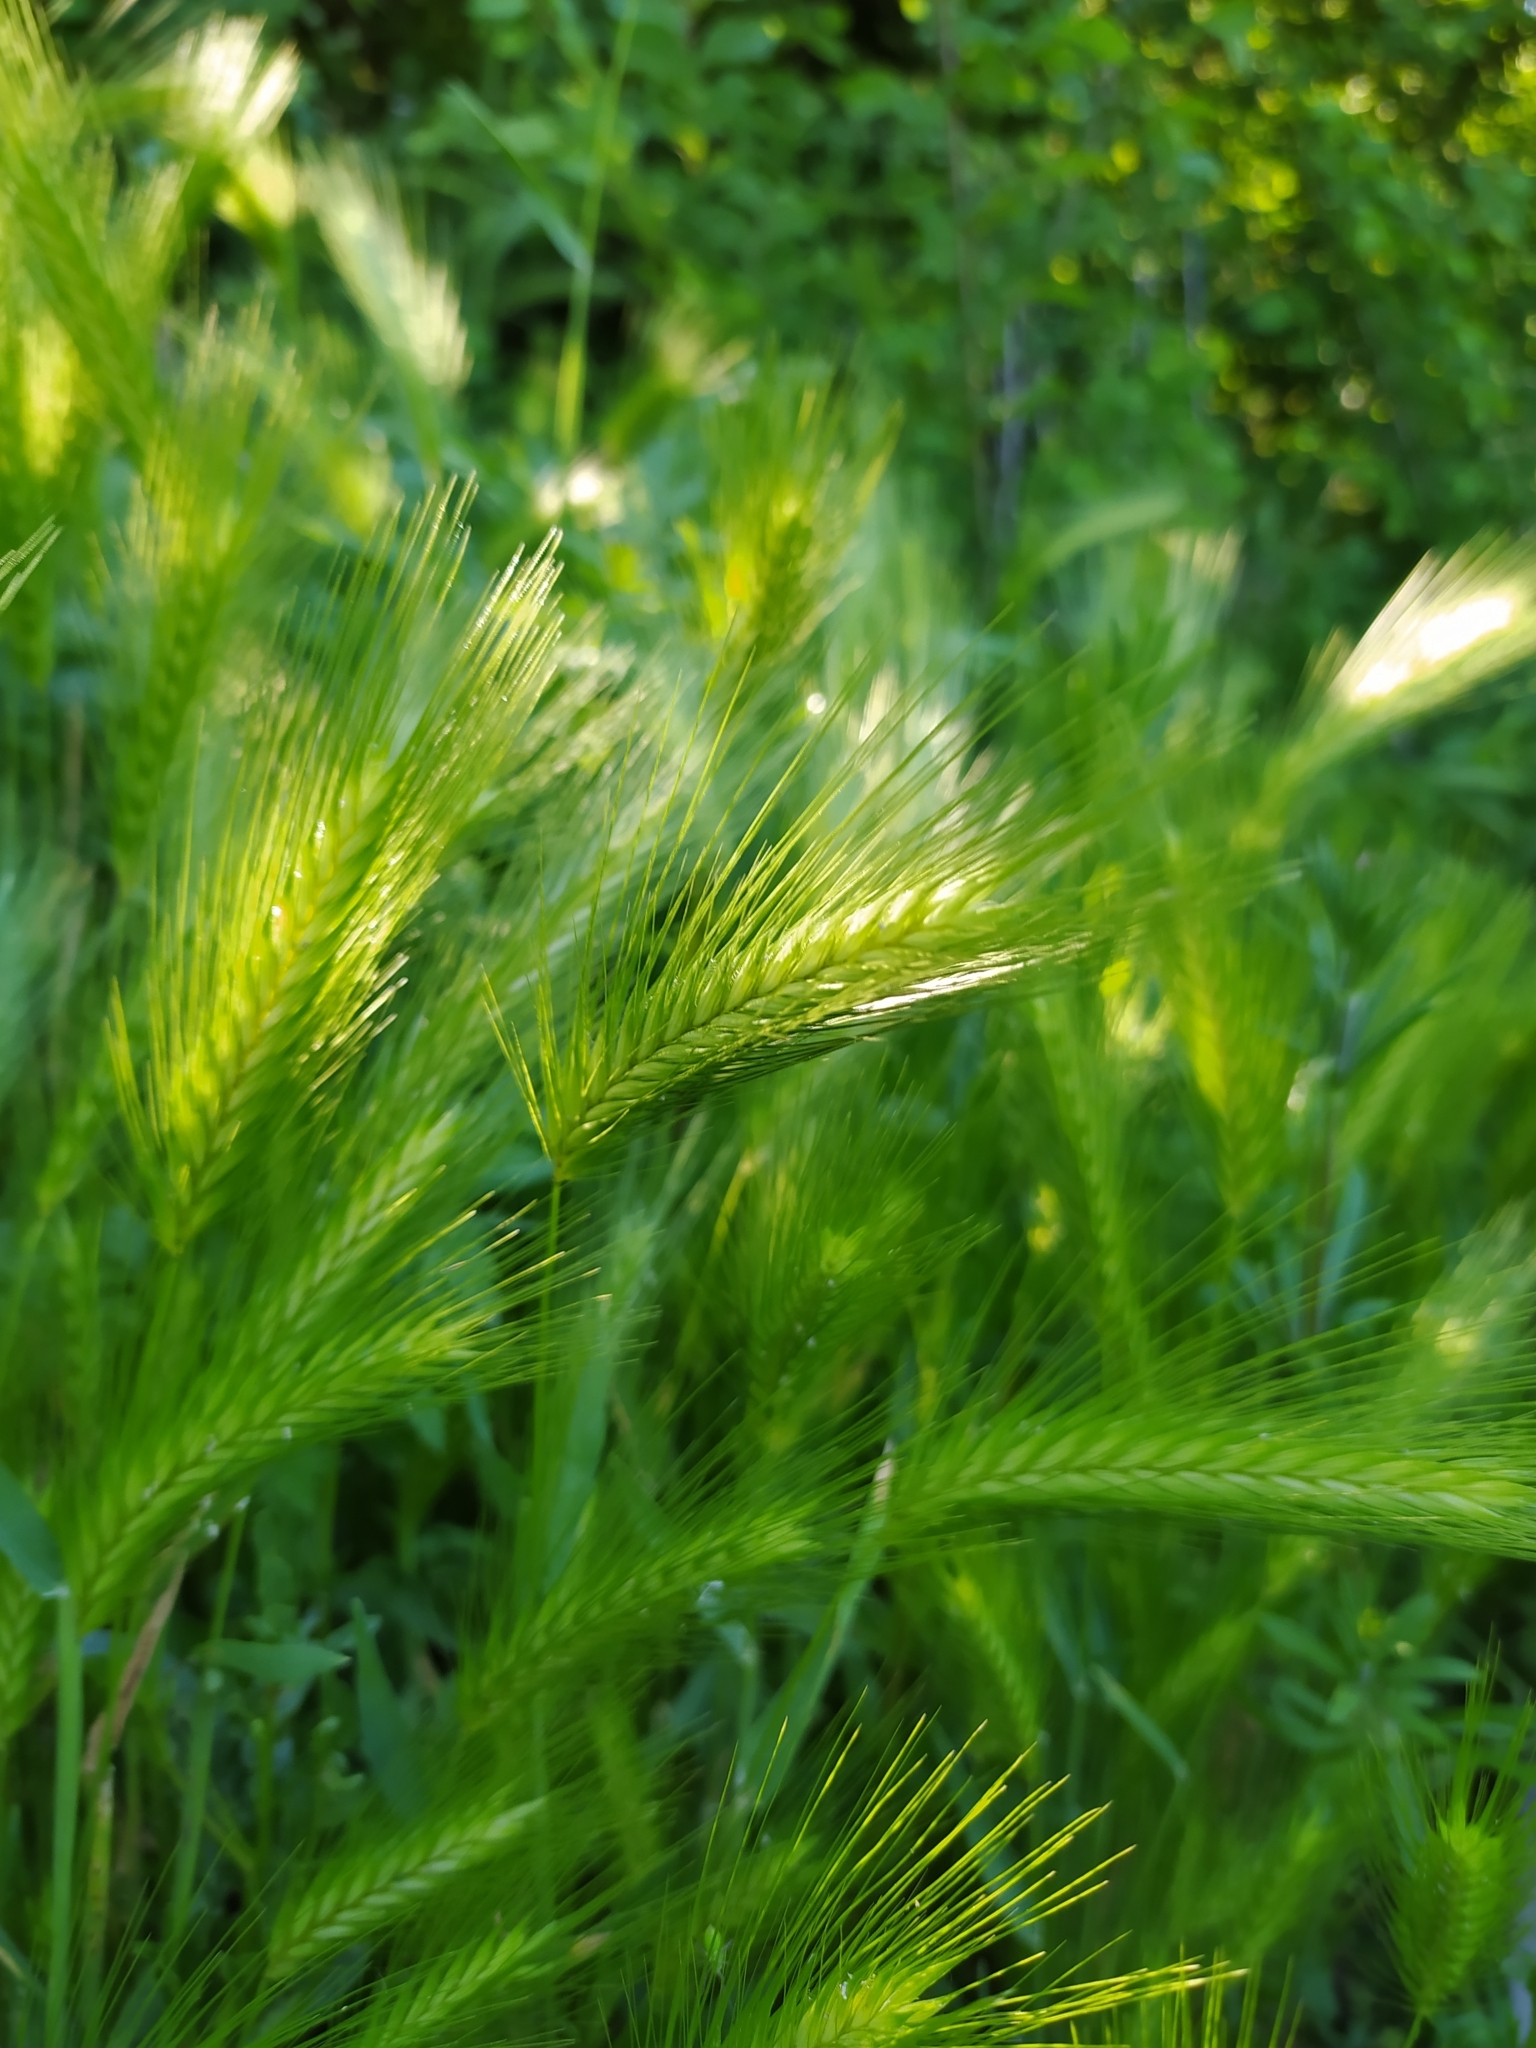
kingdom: Plantae
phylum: Tracheophyta
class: Liliopsida
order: Poales
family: Poaceae
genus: Hordeum
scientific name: Hordeum murinum
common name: Wall barley
